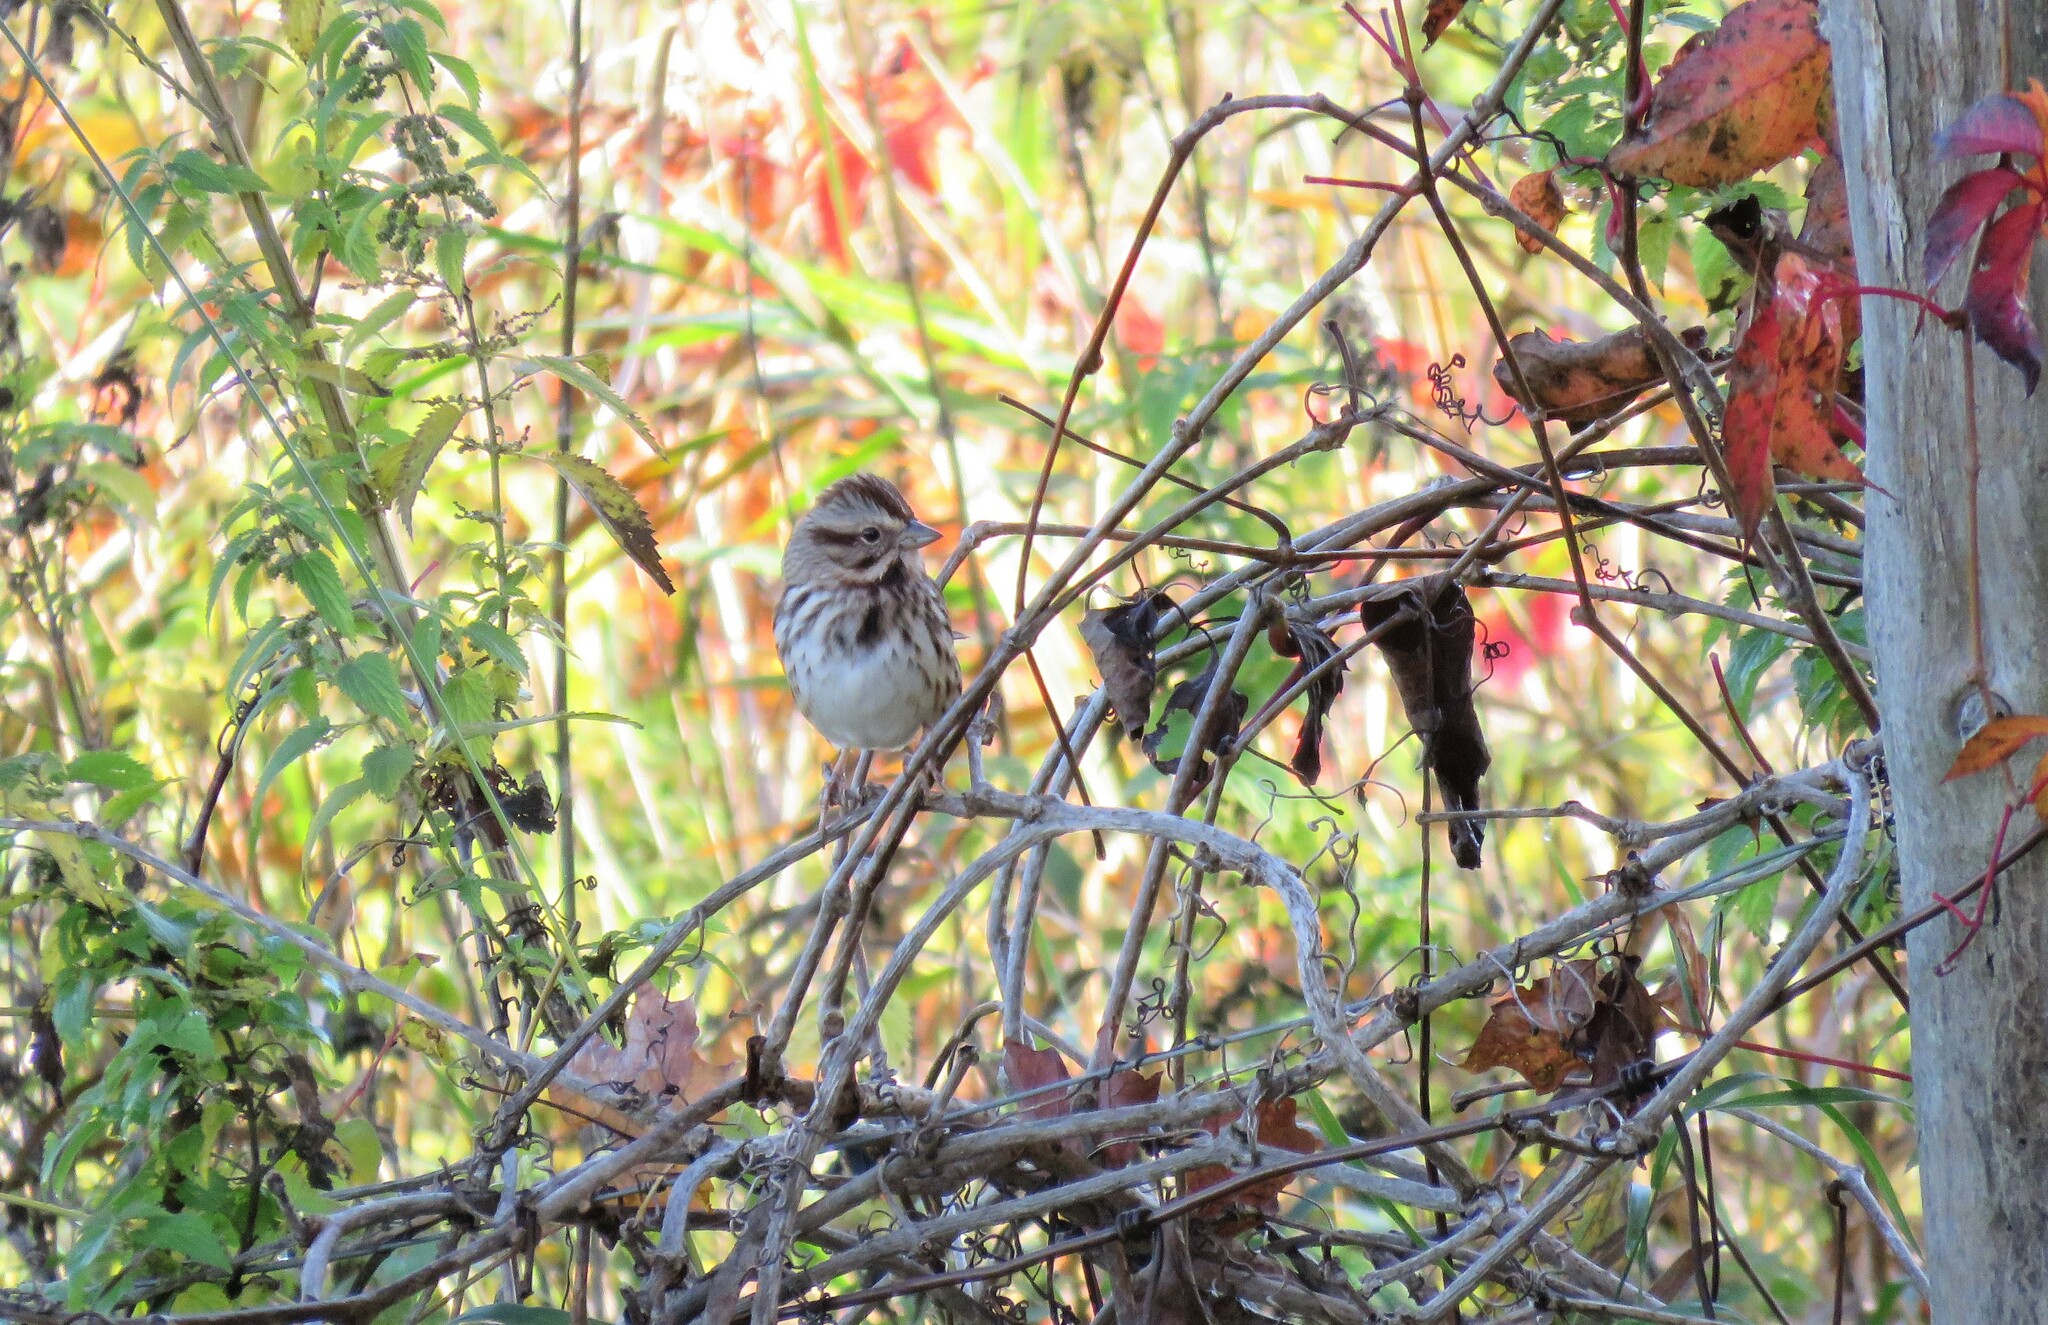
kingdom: Animalia
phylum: Chordata
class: Aves
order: Passeriformes
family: Passerellidae
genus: Melospiza
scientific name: Melospiza melodia
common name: Song sparrow
